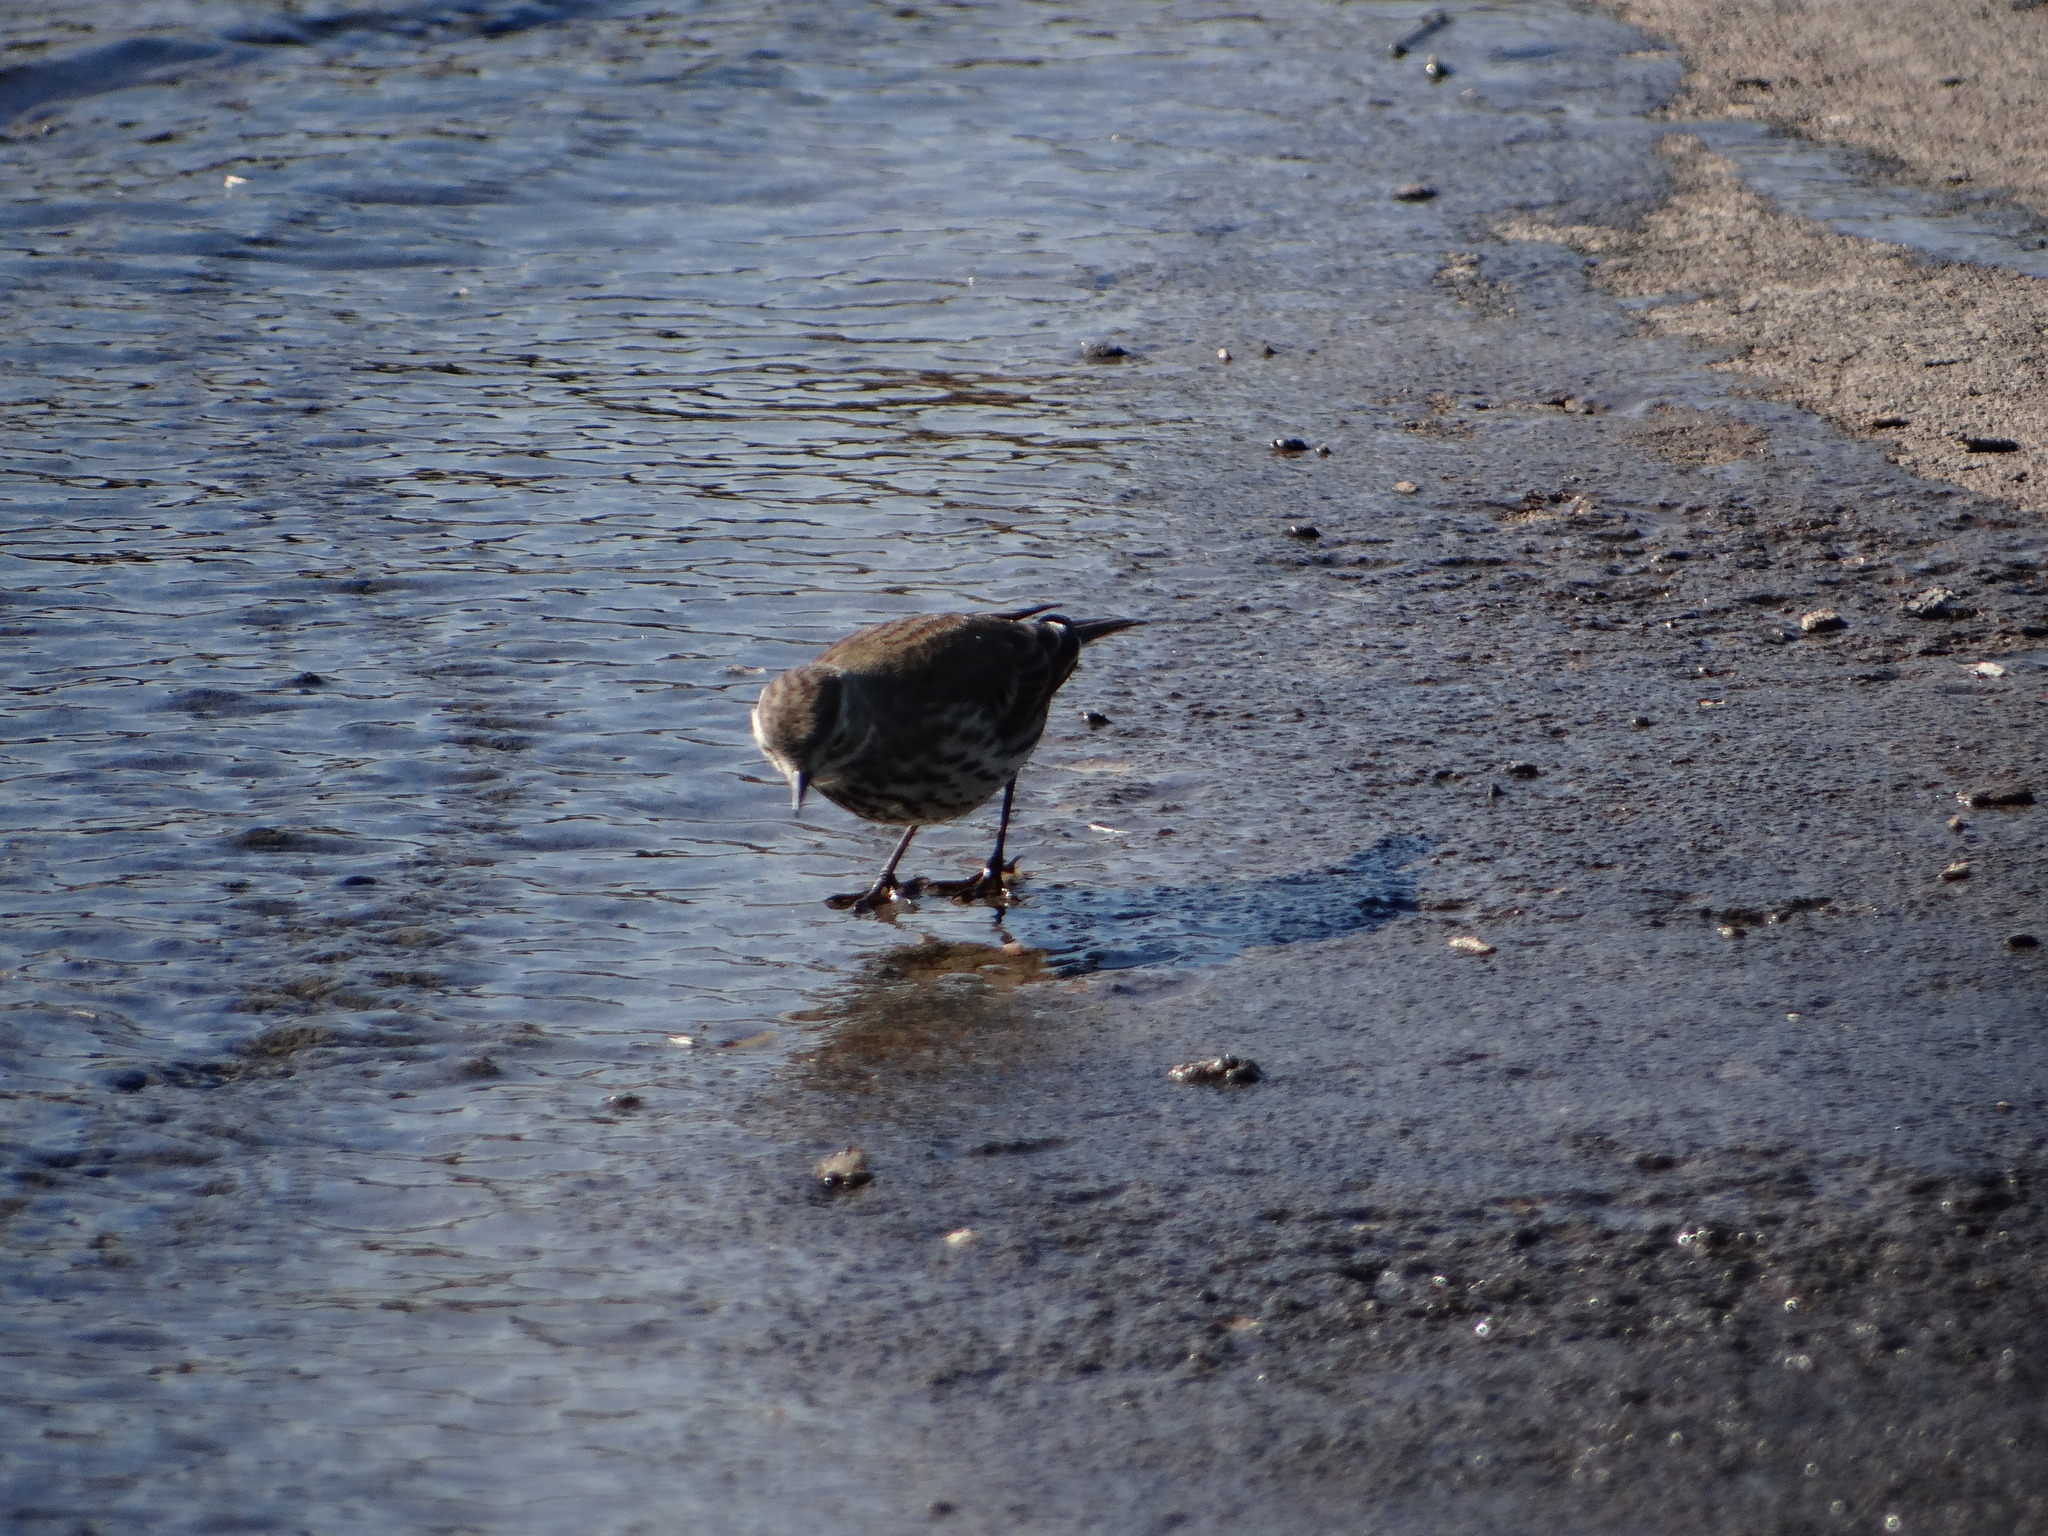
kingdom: Animalia
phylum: Chordata
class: Aves
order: Passeriformes
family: Motacillidae
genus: Anthus
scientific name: Anthus rubescens
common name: Buff-bellied pipit
